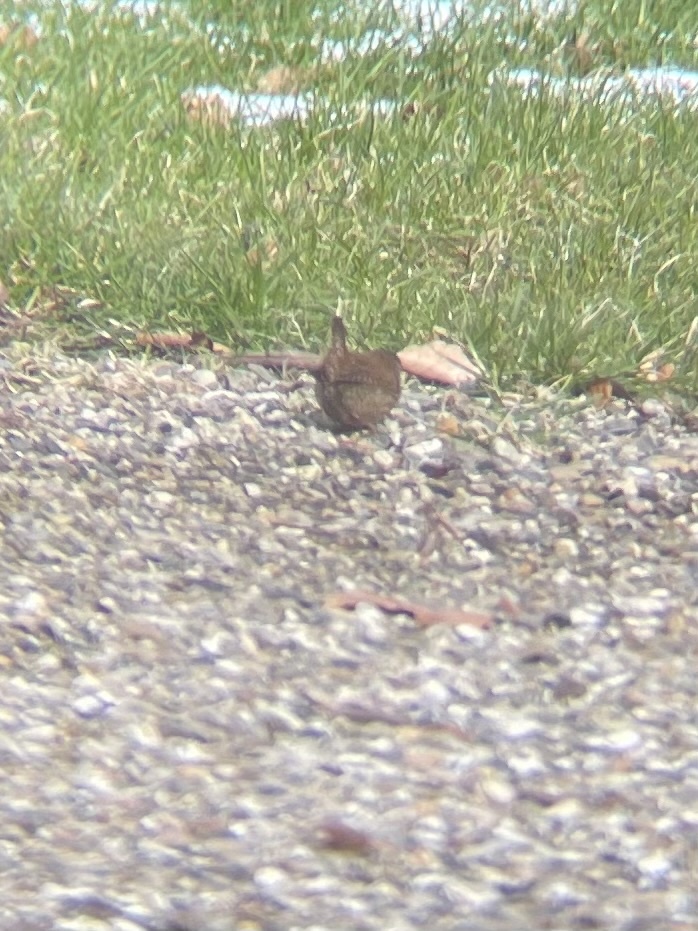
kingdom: Animalia
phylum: Chordata
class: Aves
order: Passeriformes
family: Troglodytidae
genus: Troglodytes
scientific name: Troglodytes troglodytes
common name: Eurasian wren
